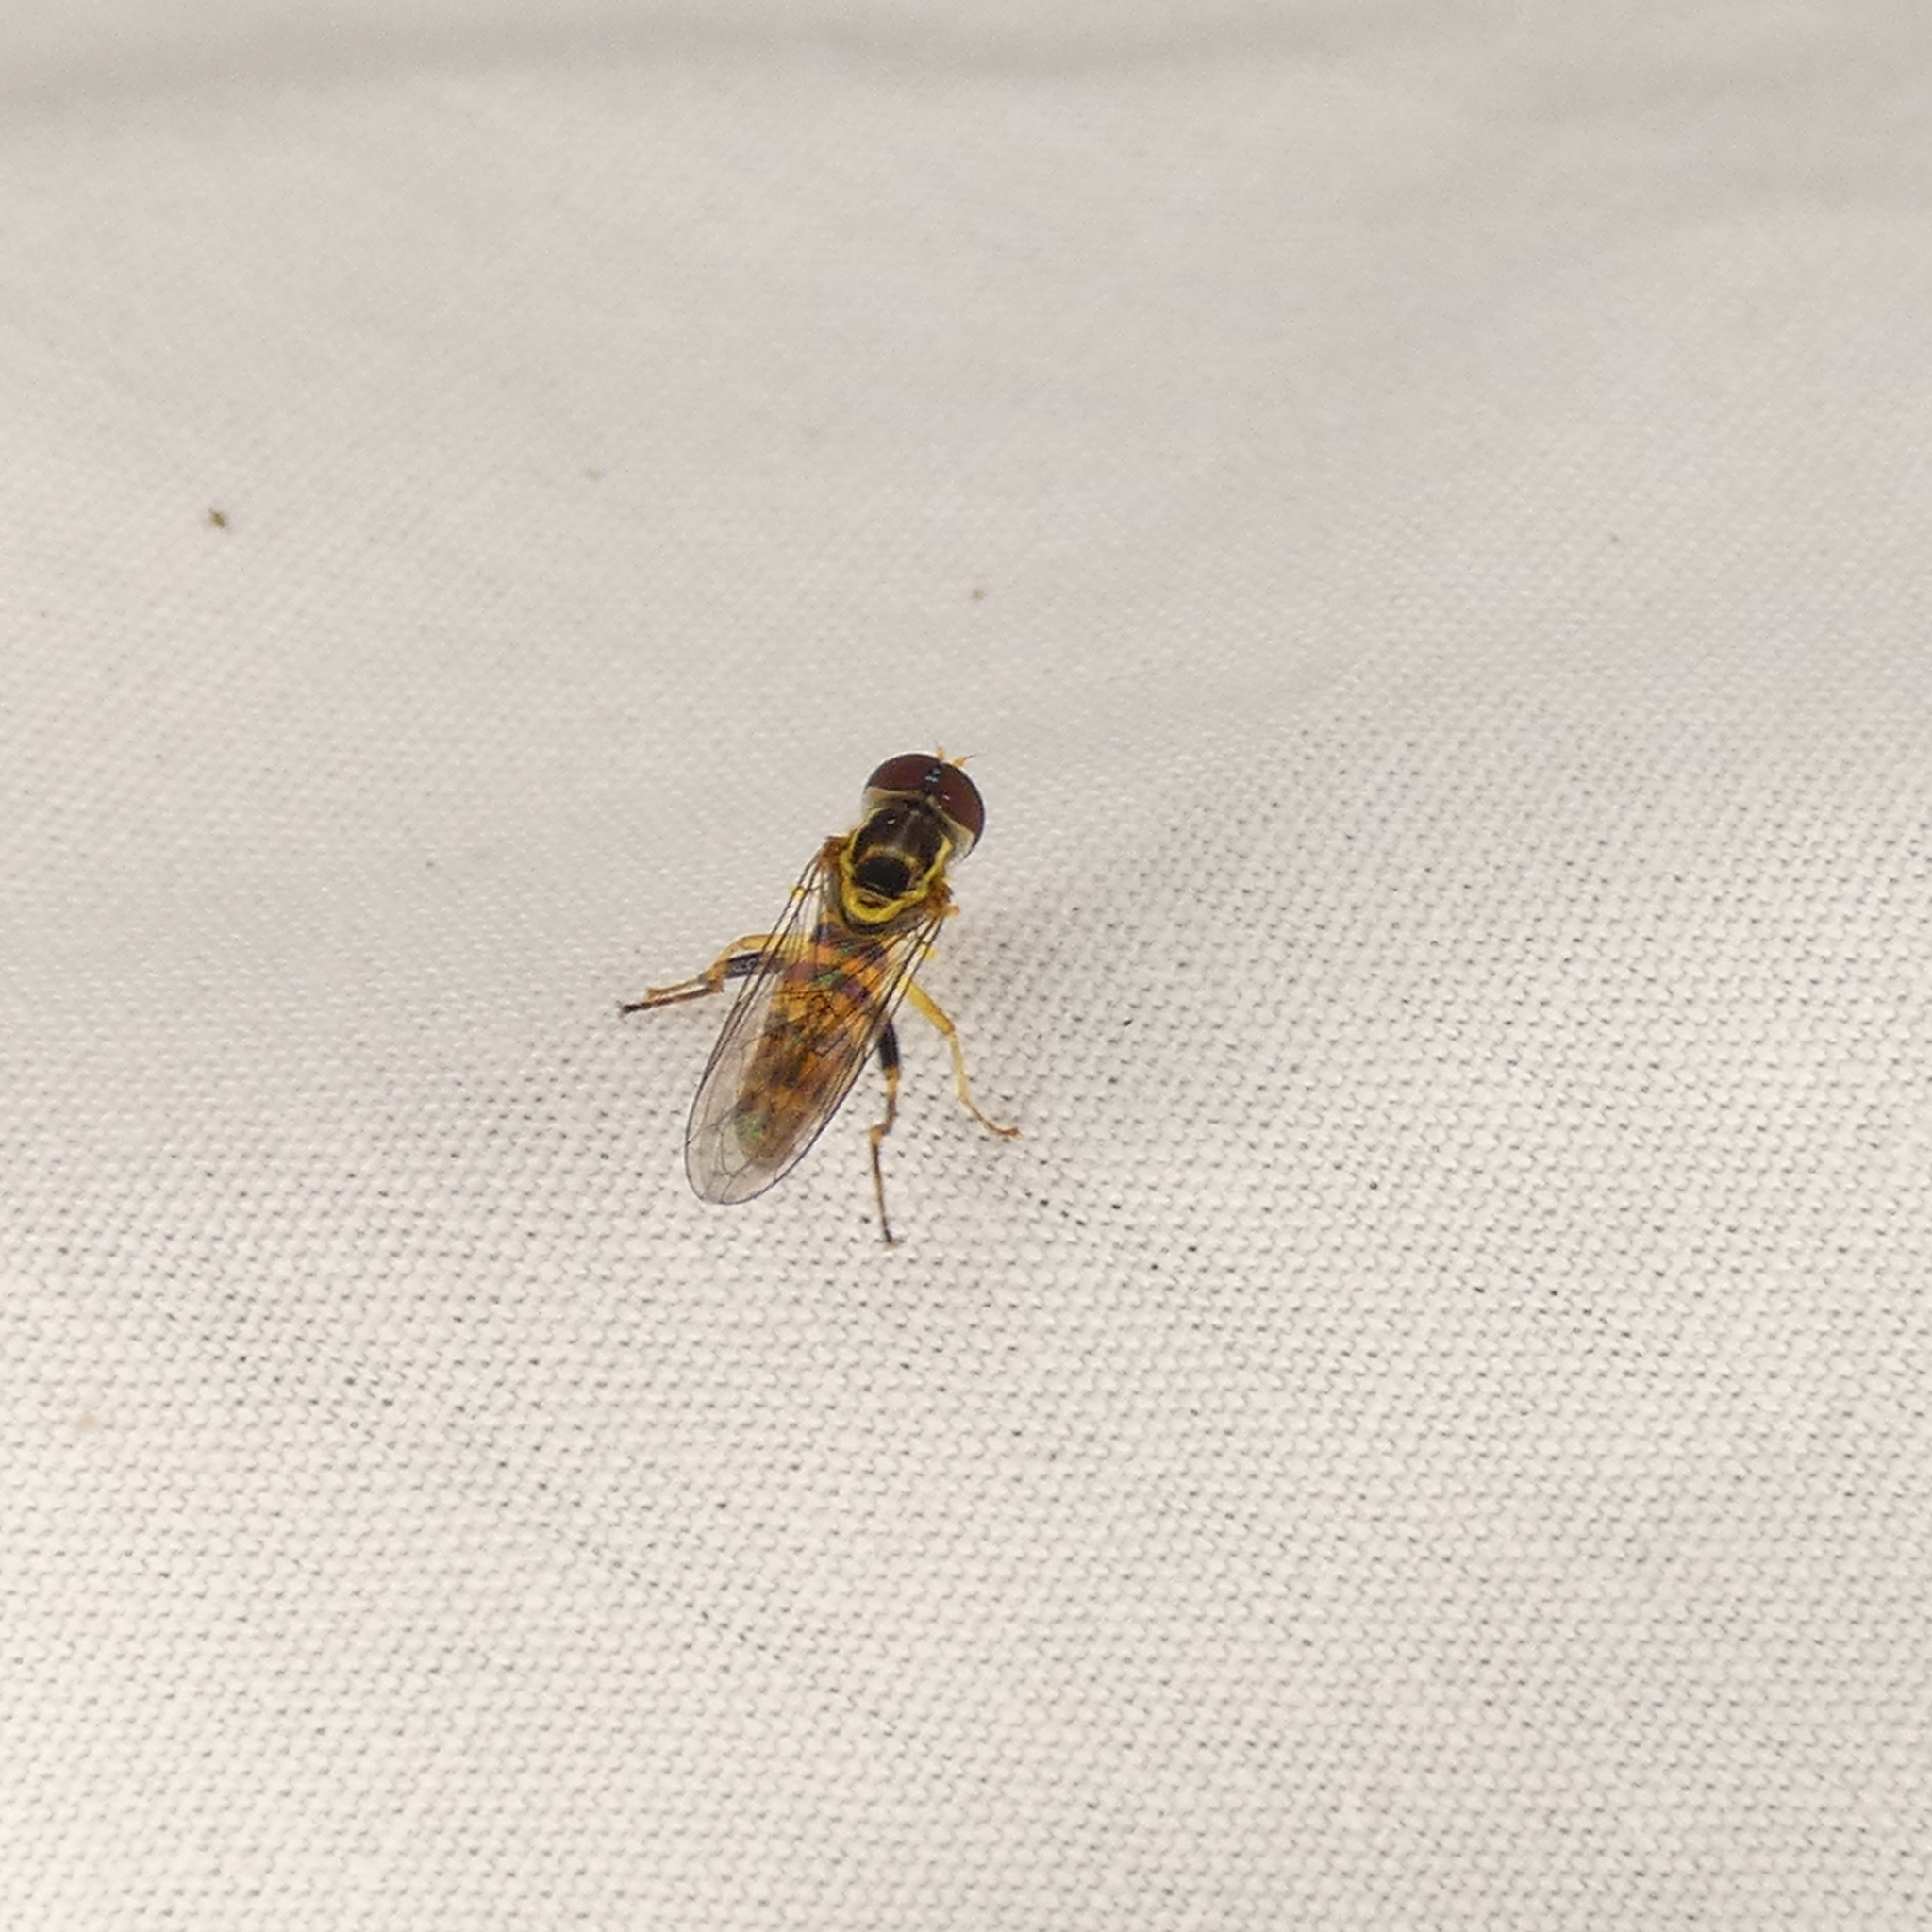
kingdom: Animalia
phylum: Arthropoda
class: Insecta
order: Diptera
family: Syrphidae
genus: Toxomerus
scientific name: Toxomerus geminatus
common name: Eastern calligrapher
